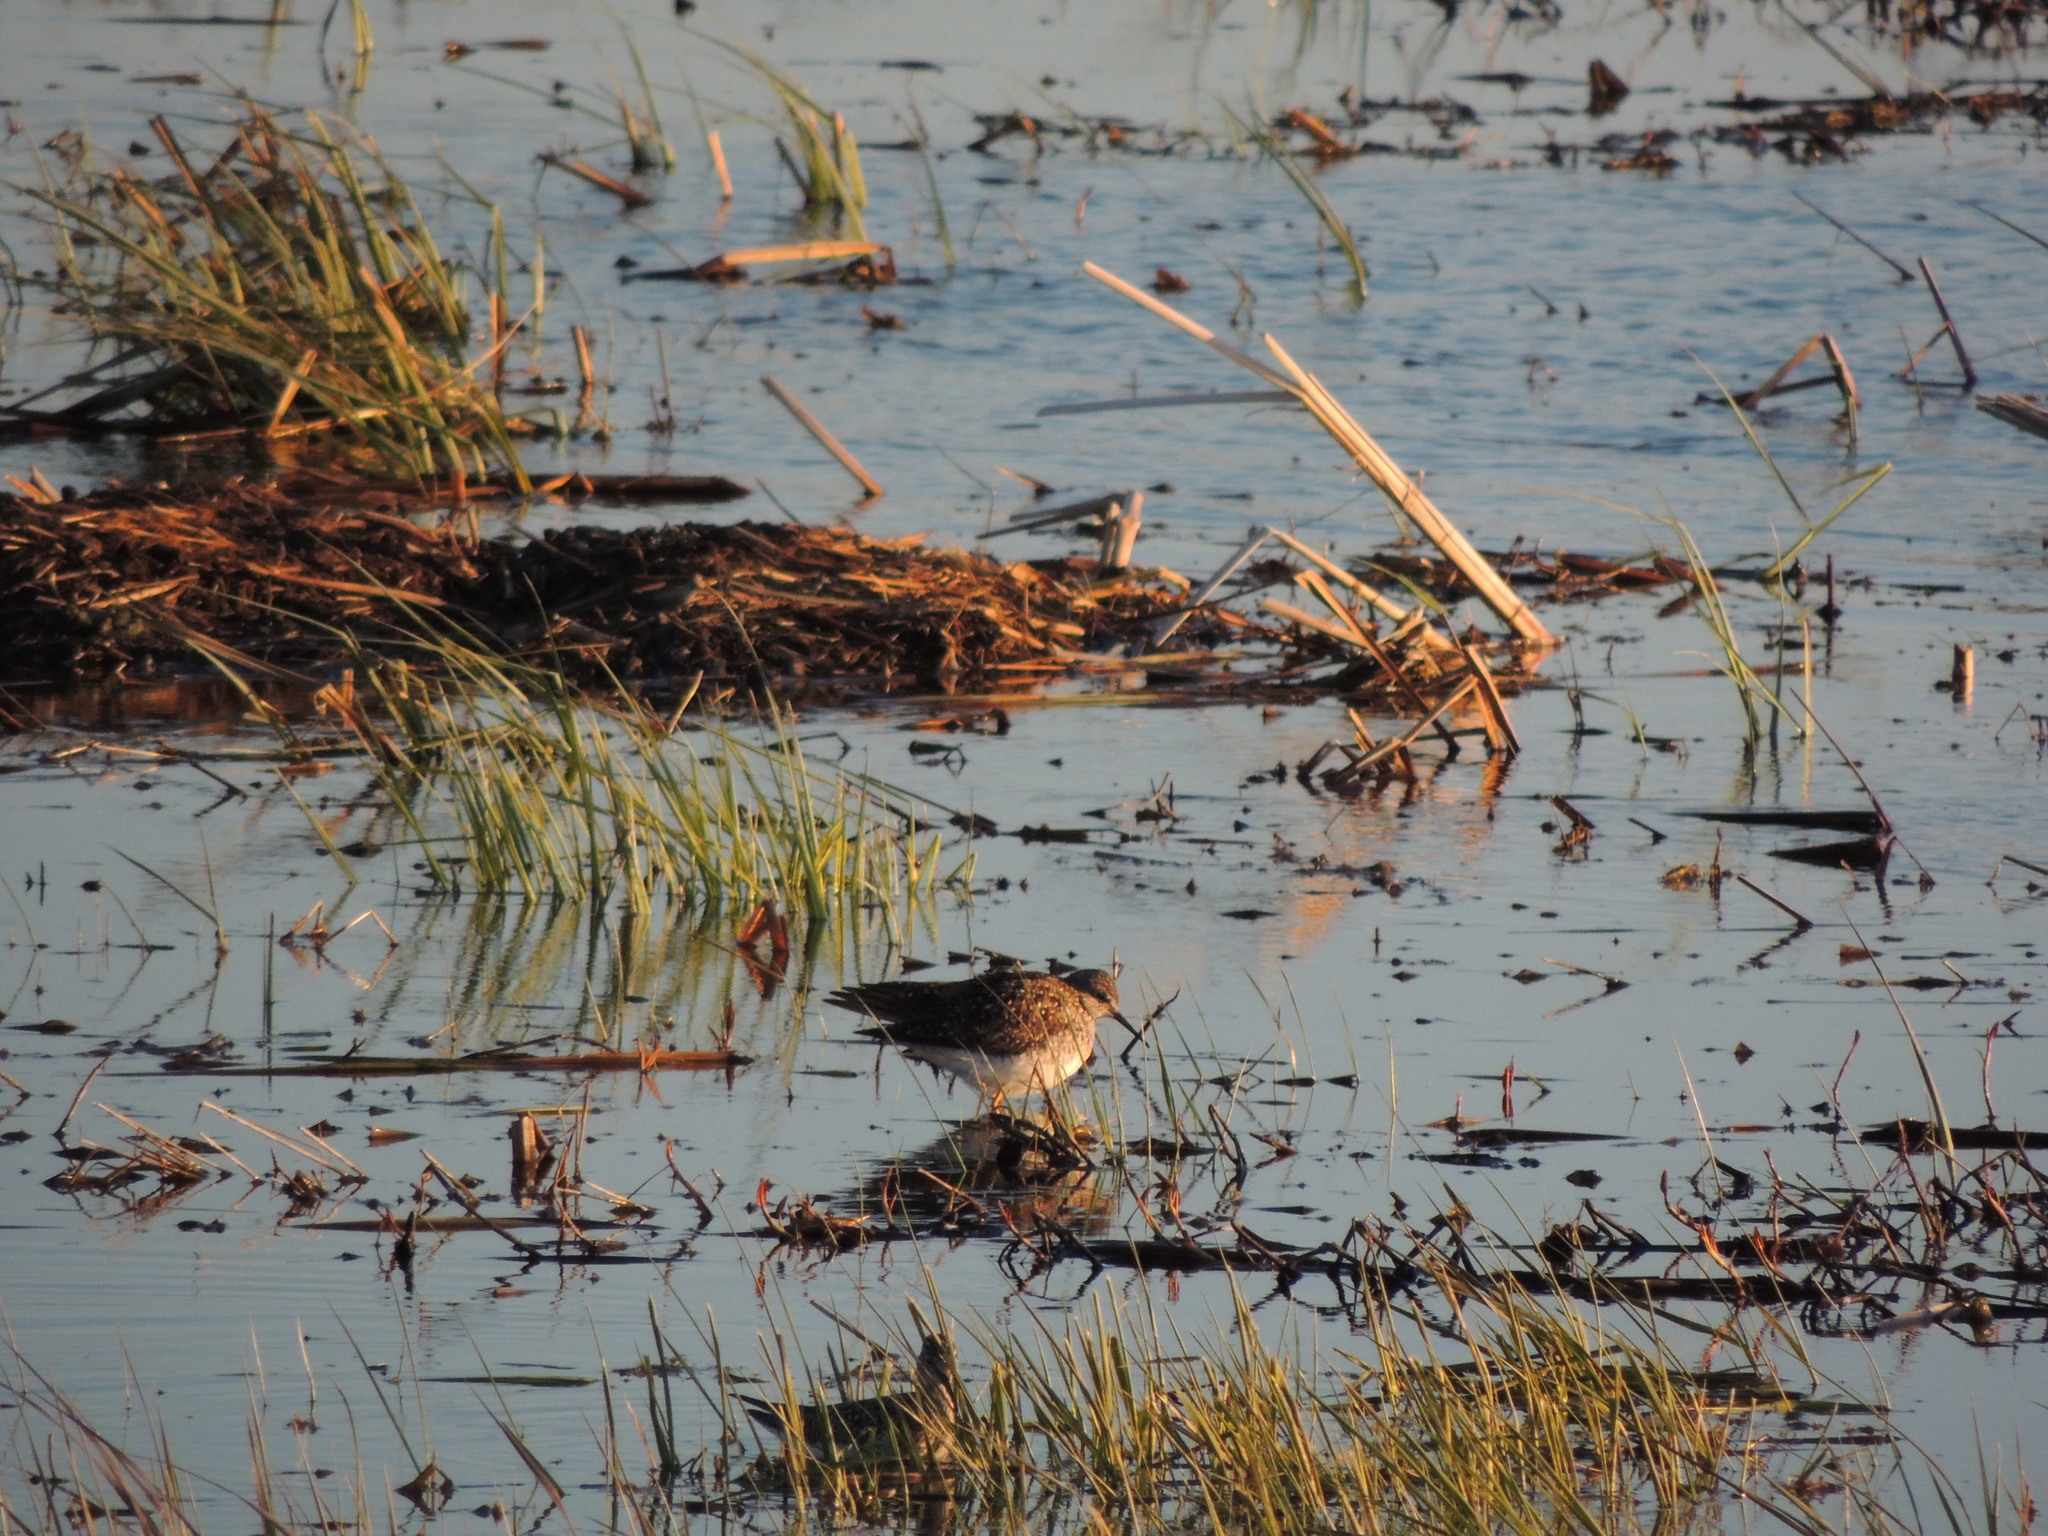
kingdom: Animalia
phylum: Chordata
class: Aves
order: Charadriiformes
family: Scolopacidae
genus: Tringa
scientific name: Tringa flavipes
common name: Lesser yellowlegs
